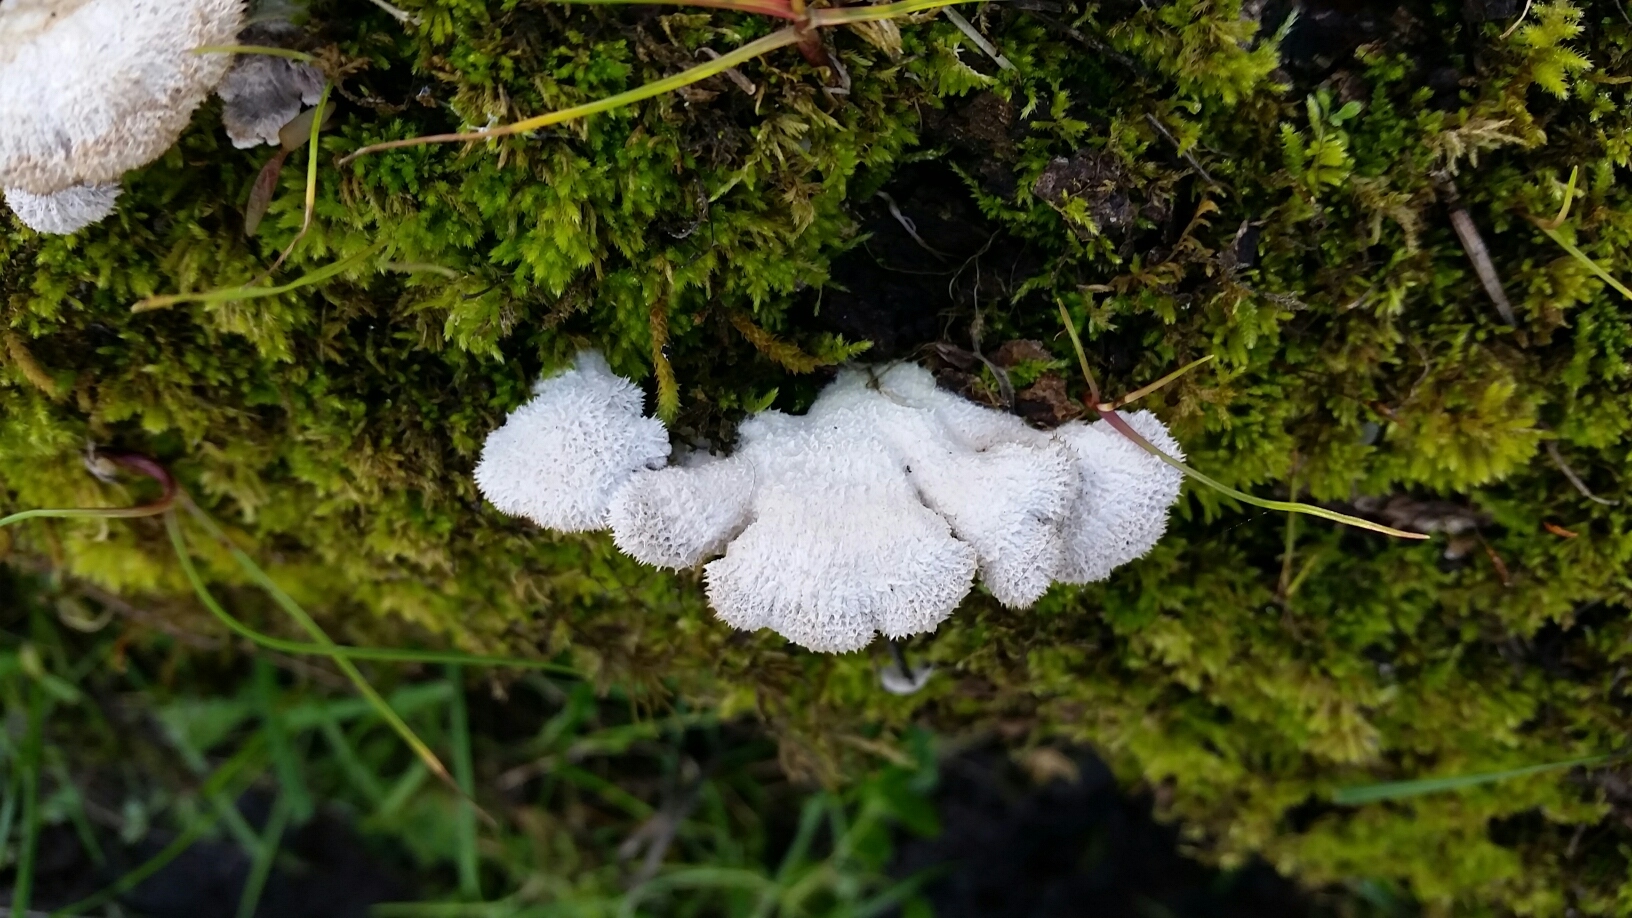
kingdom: Fungi
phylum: Basidiomycota
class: Agaricomycetes
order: Agaricales
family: Schizophyllaceae
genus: Schizophyllum
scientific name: Schizophyllum commune
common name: Common porecrust
